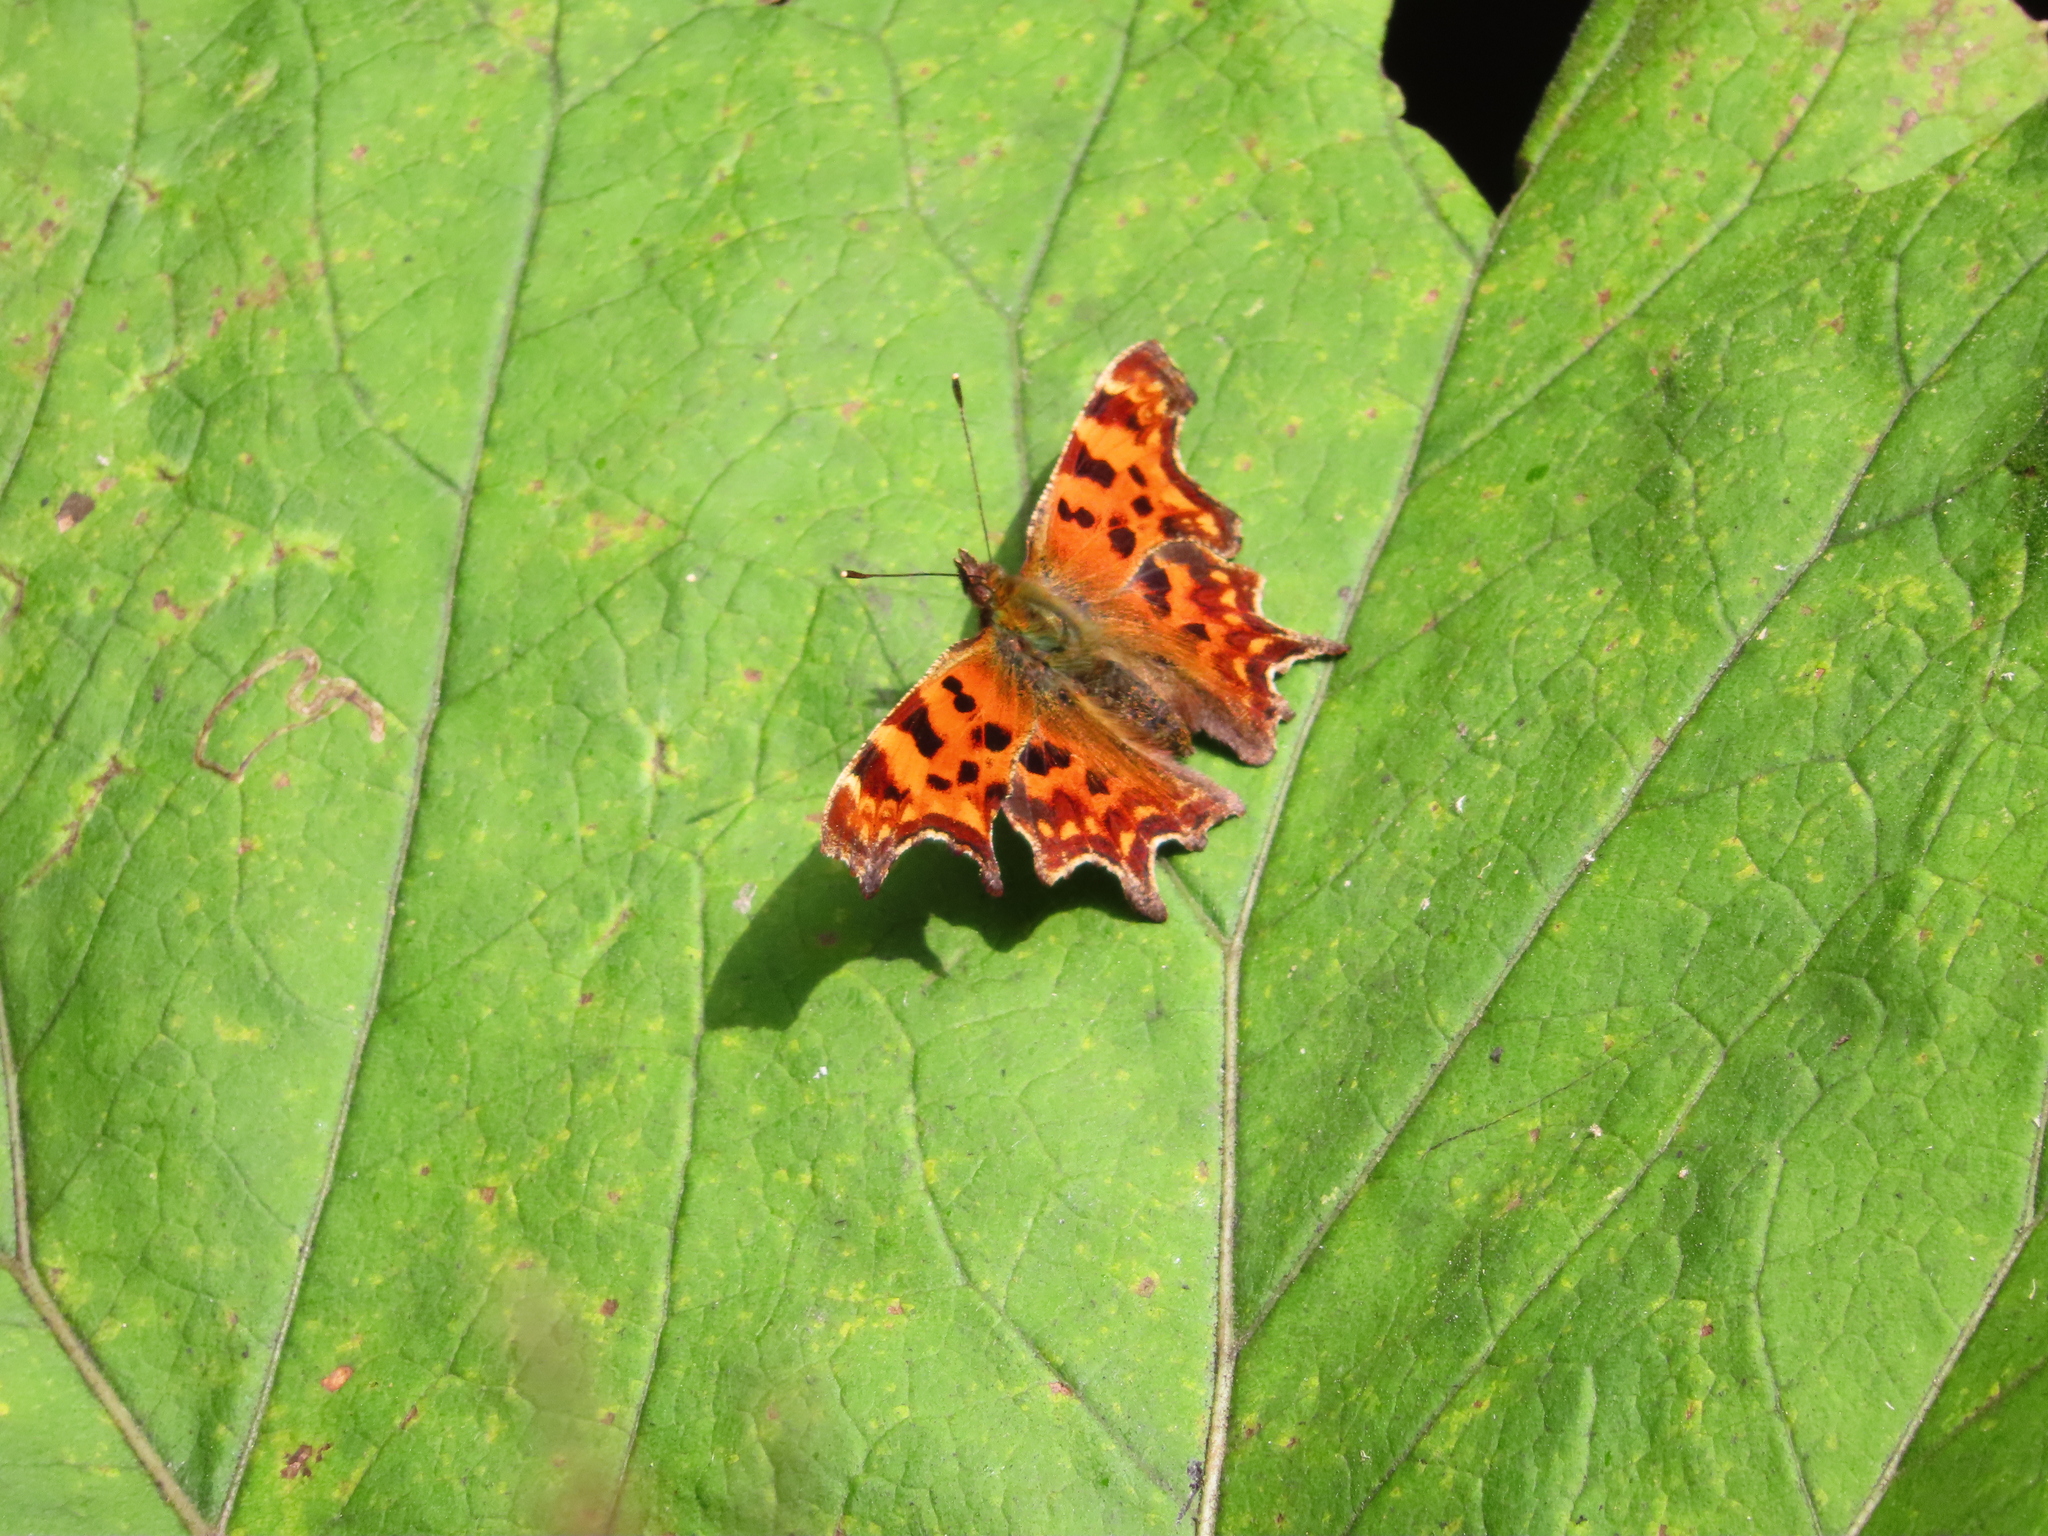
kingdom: Animalia
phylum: Arthropoda
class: Insecta
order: Lepidoptera
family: Nymphalidae
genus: Polygonia
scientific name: Polygonia c-album
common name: Comma
